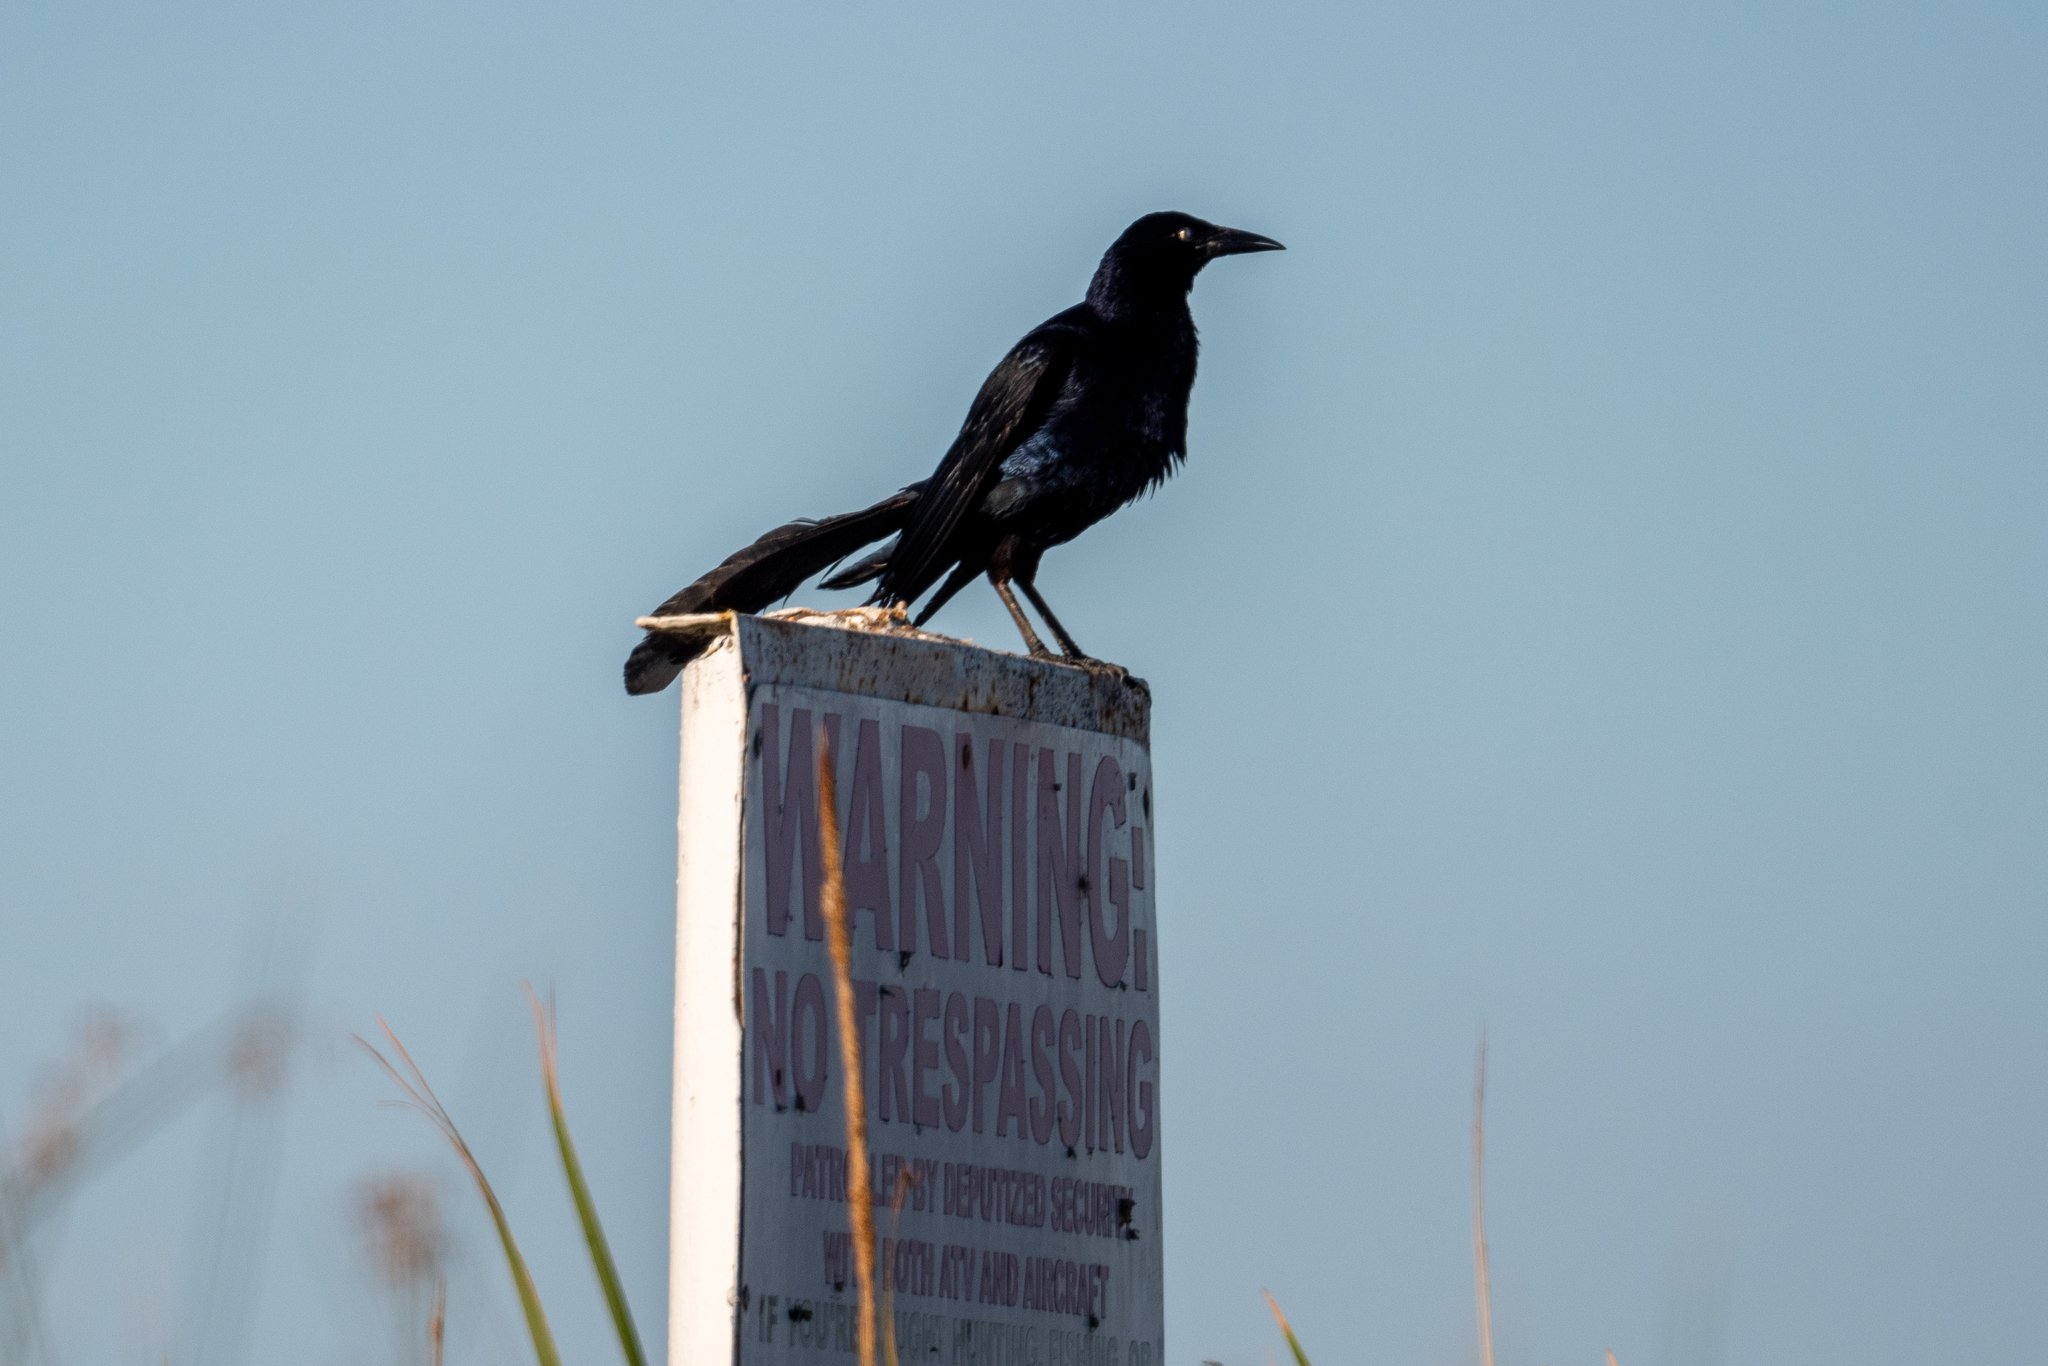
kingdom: Animalia
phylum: Chordata
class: Aves
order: Passeriformes
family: Icteridae
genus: Quiscalus
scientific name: Quiscalus mexicanus
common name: Great-tailed grackle
